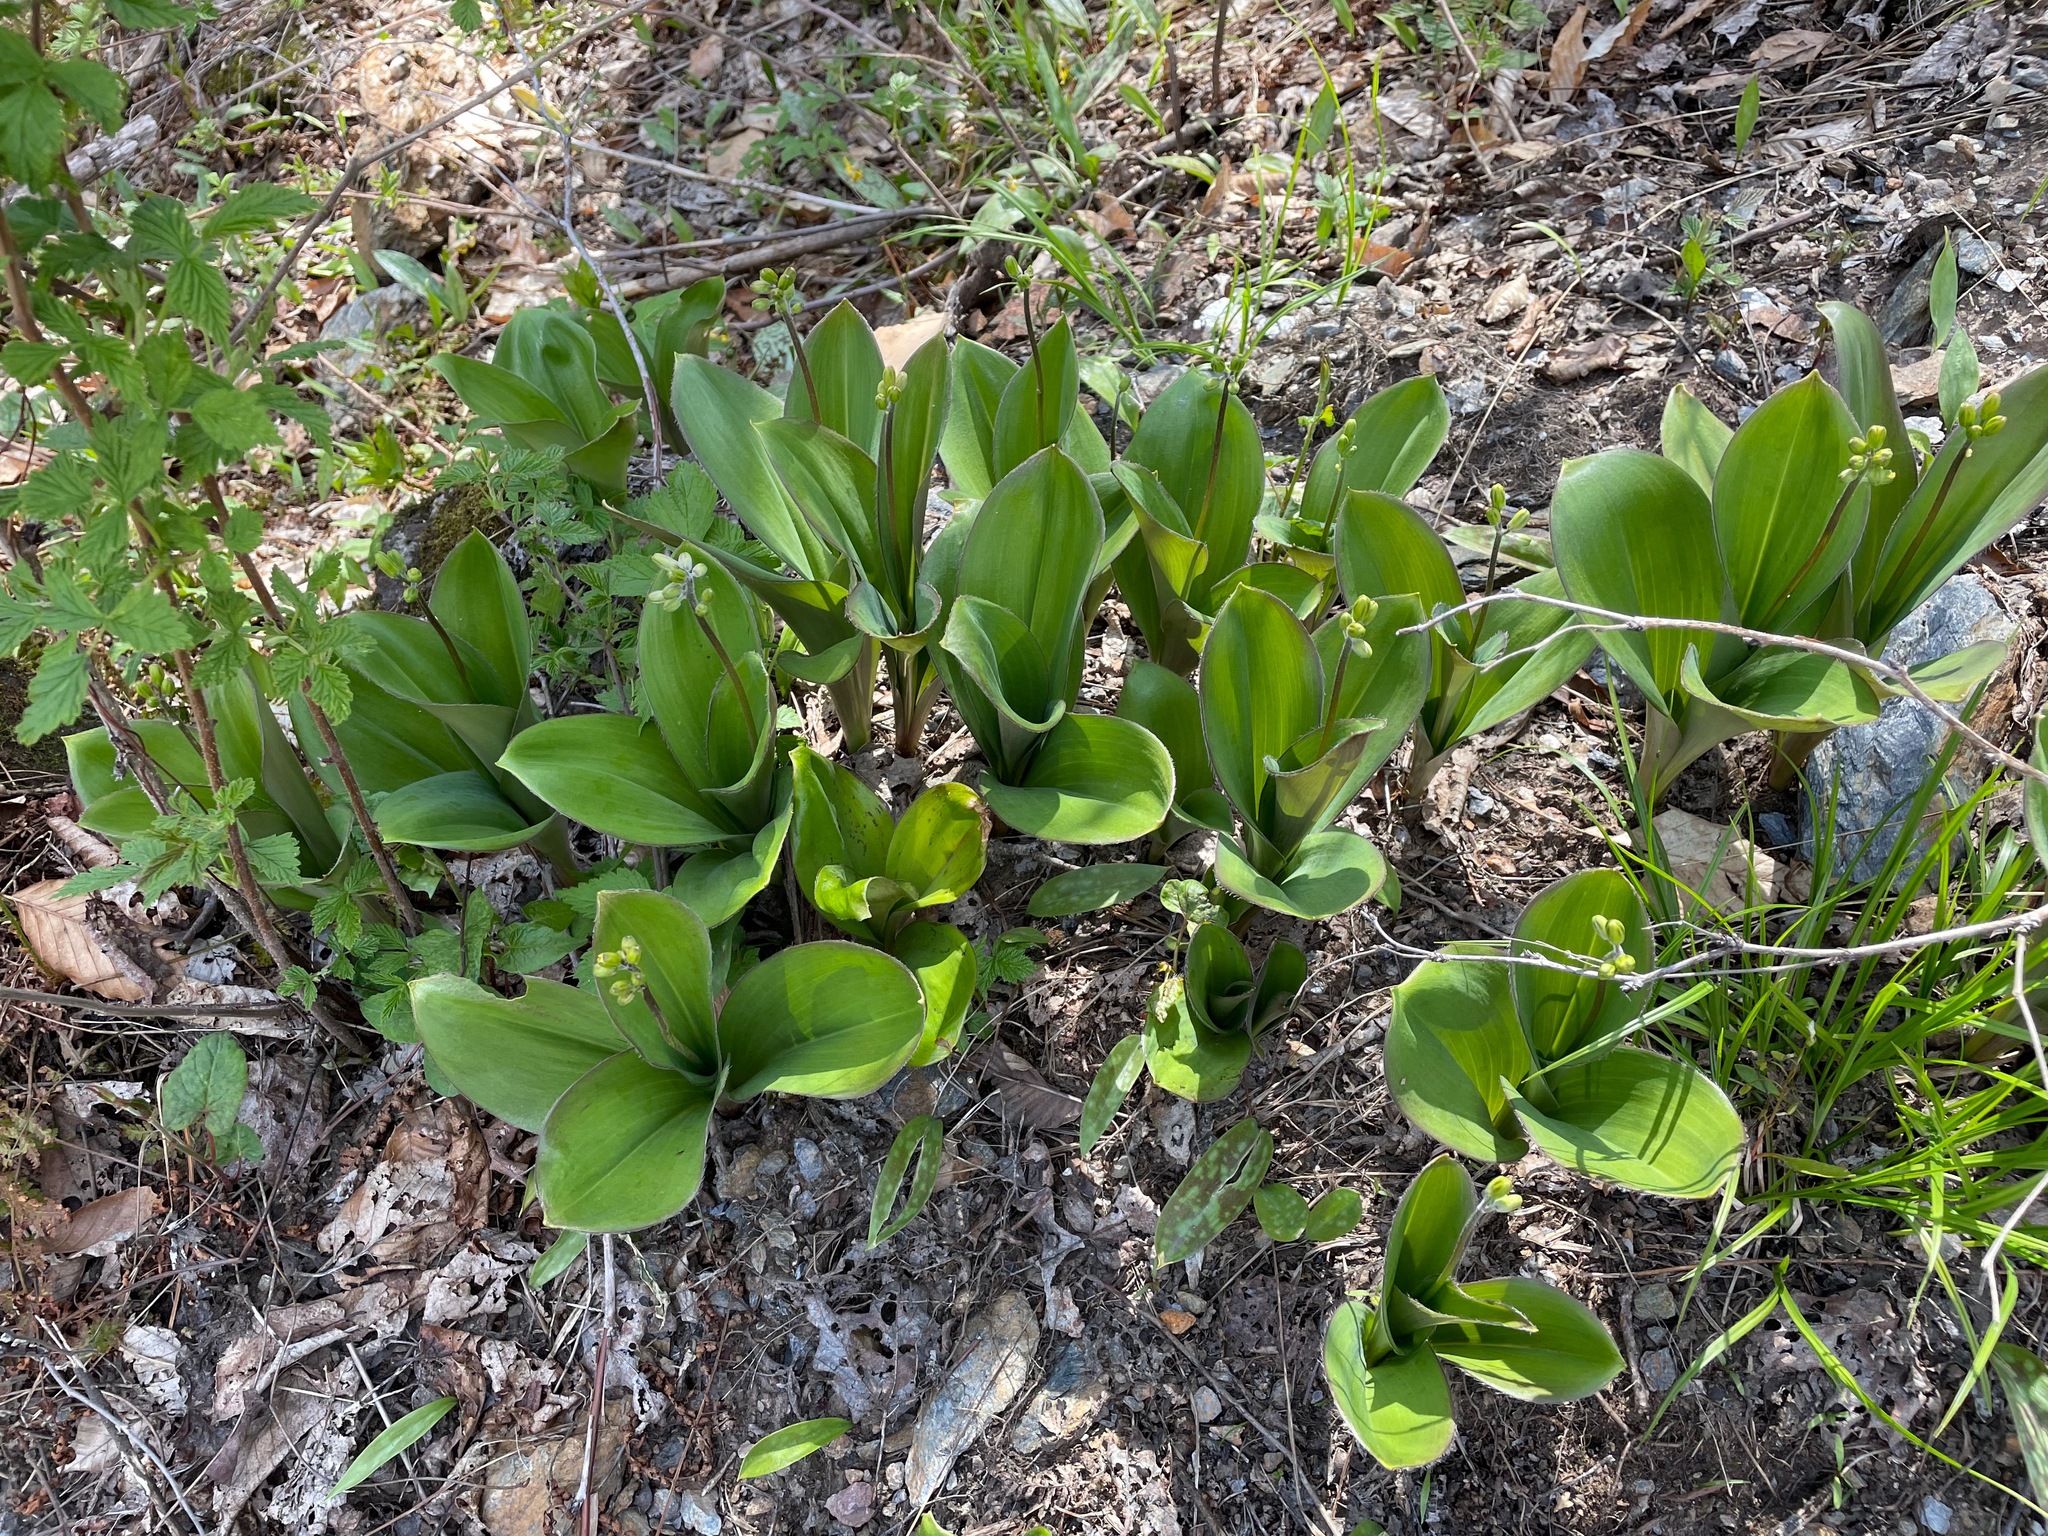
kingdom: Plantae
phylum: Tracheophyta
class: Liliopsida
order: Liliales
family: Liliaceae
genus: Clintonia
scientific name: Clintonia borealis
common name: Yellow clintonia
